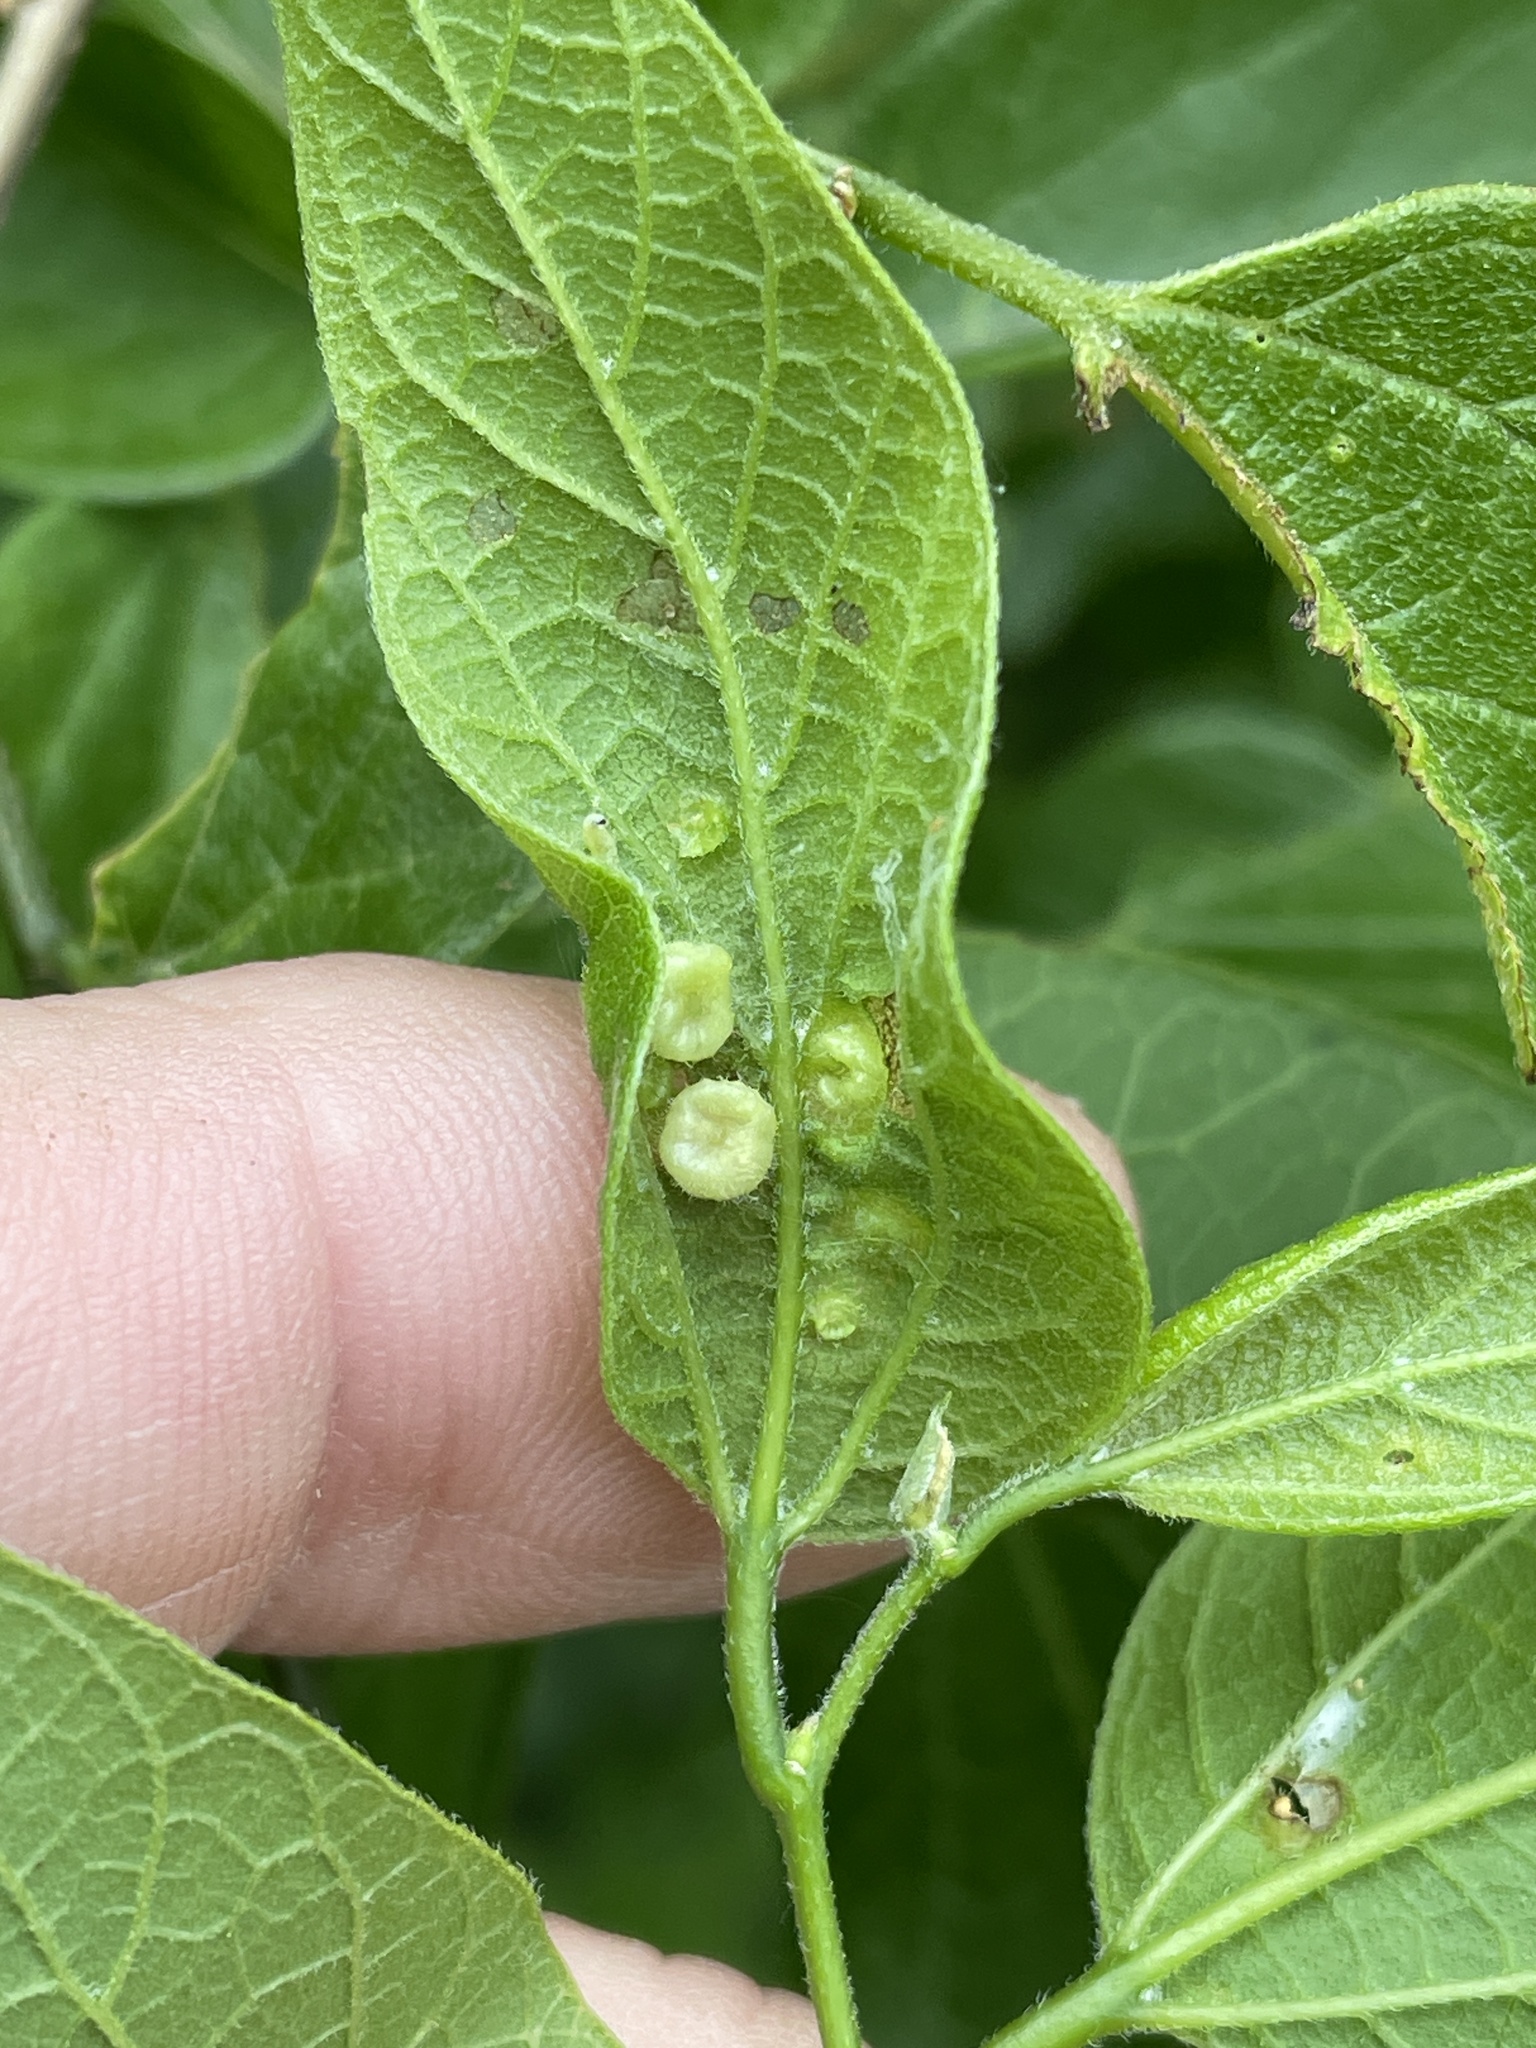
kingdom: Animalia
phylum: Arthropoda
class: Insecta
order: Hemiptera
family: Aphalaridae
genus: Pachypsylla
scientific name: Pachypsylla celtidismamma
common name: Hackberry nipplegall psyllid
